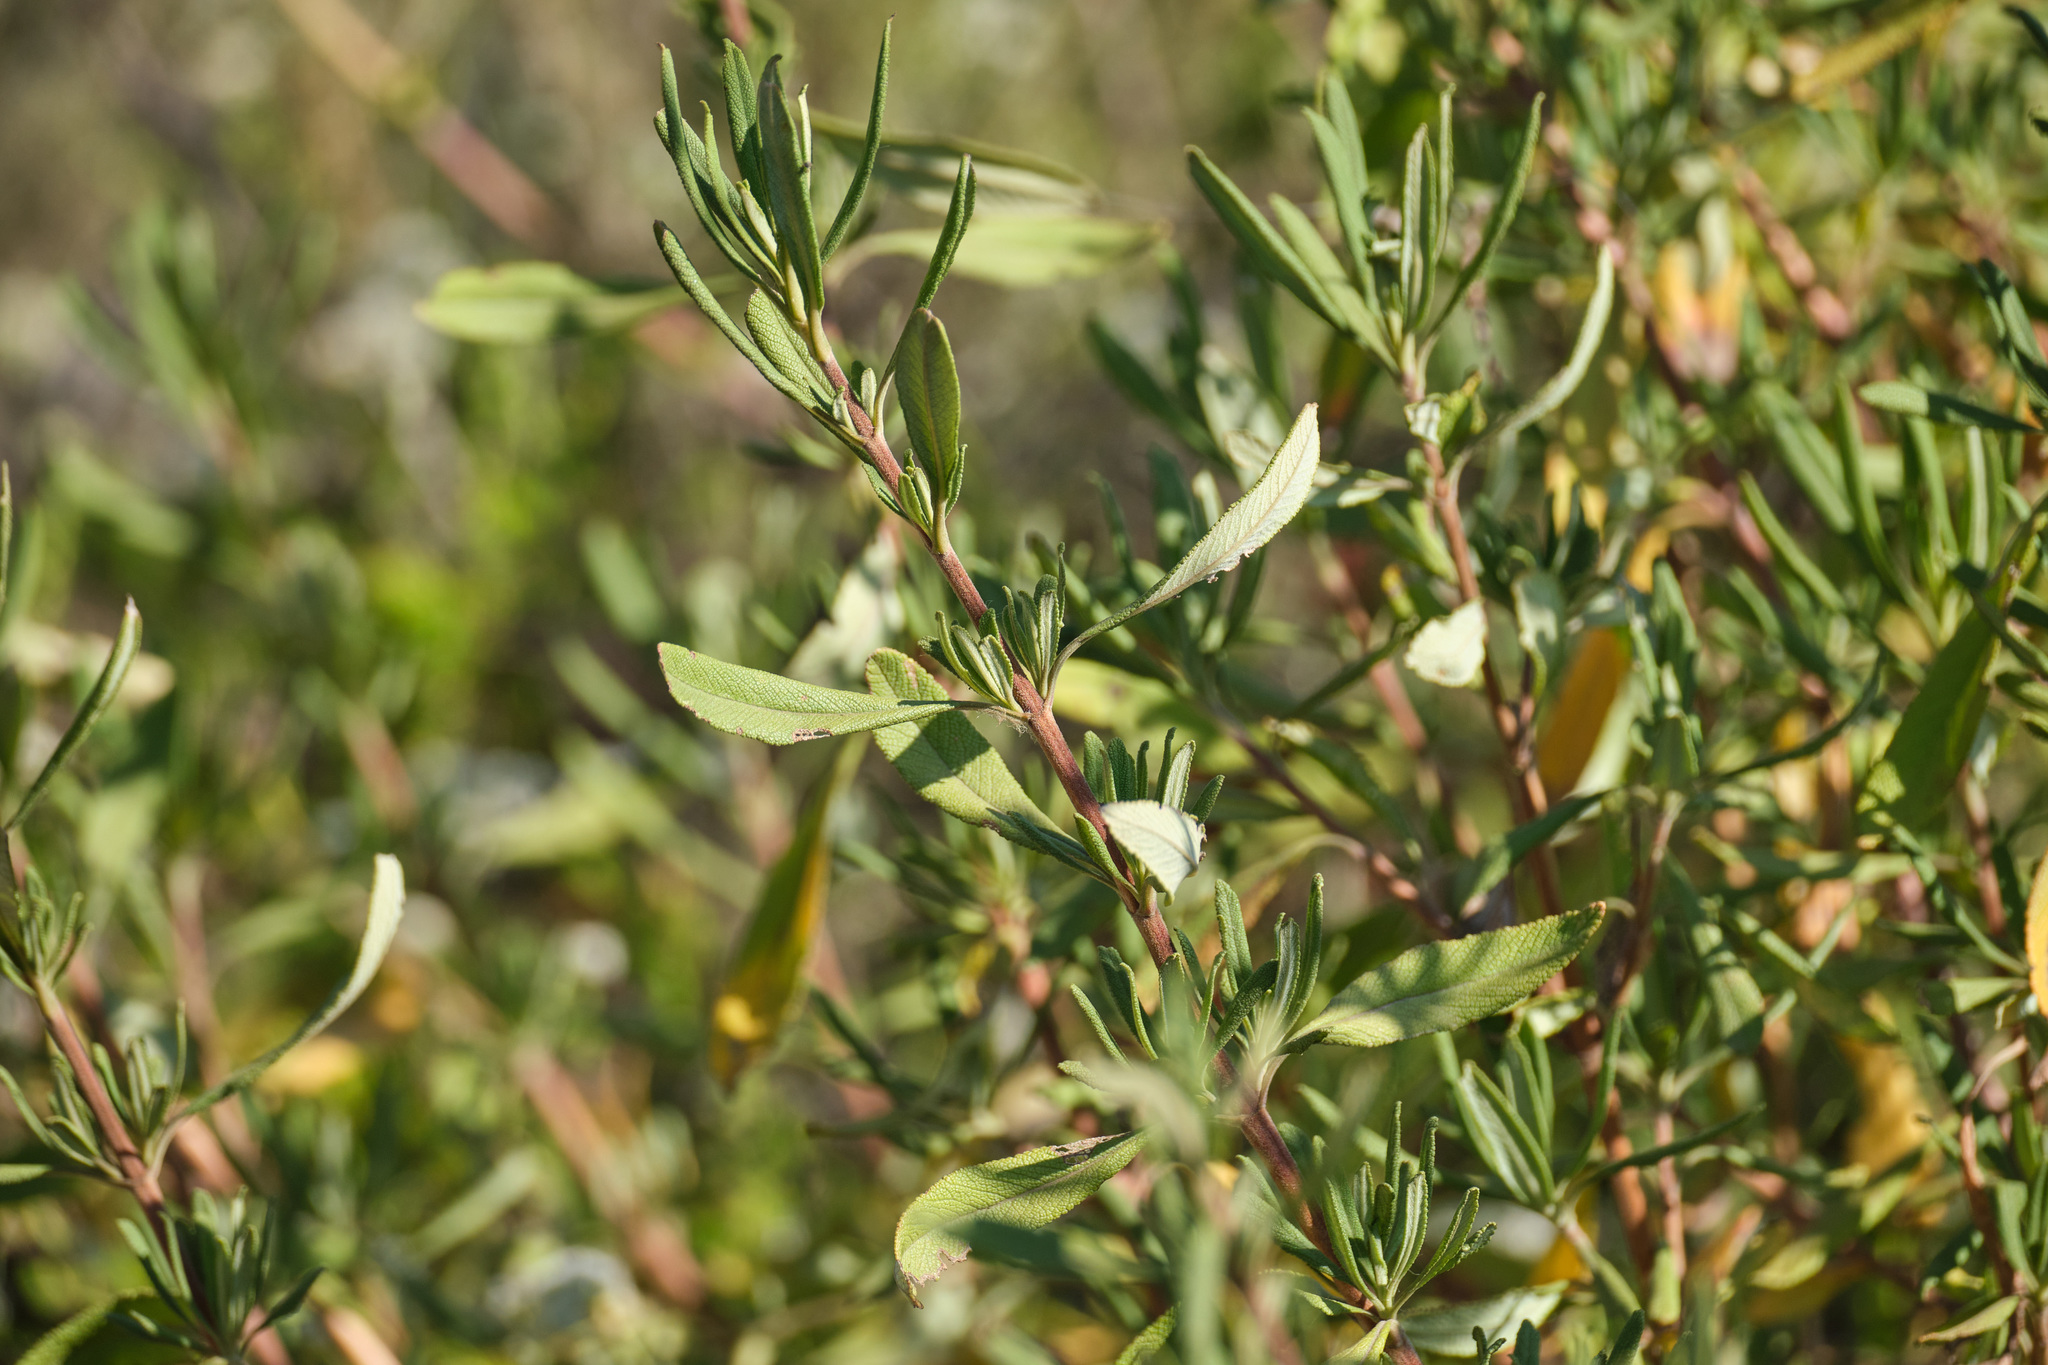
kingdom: Plantae
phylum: Tracheophyta
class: Magnoliopsida
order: Lamiales
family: Lamiaceae
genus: Salvia
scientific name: Salvia mellifera
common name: Black sage
